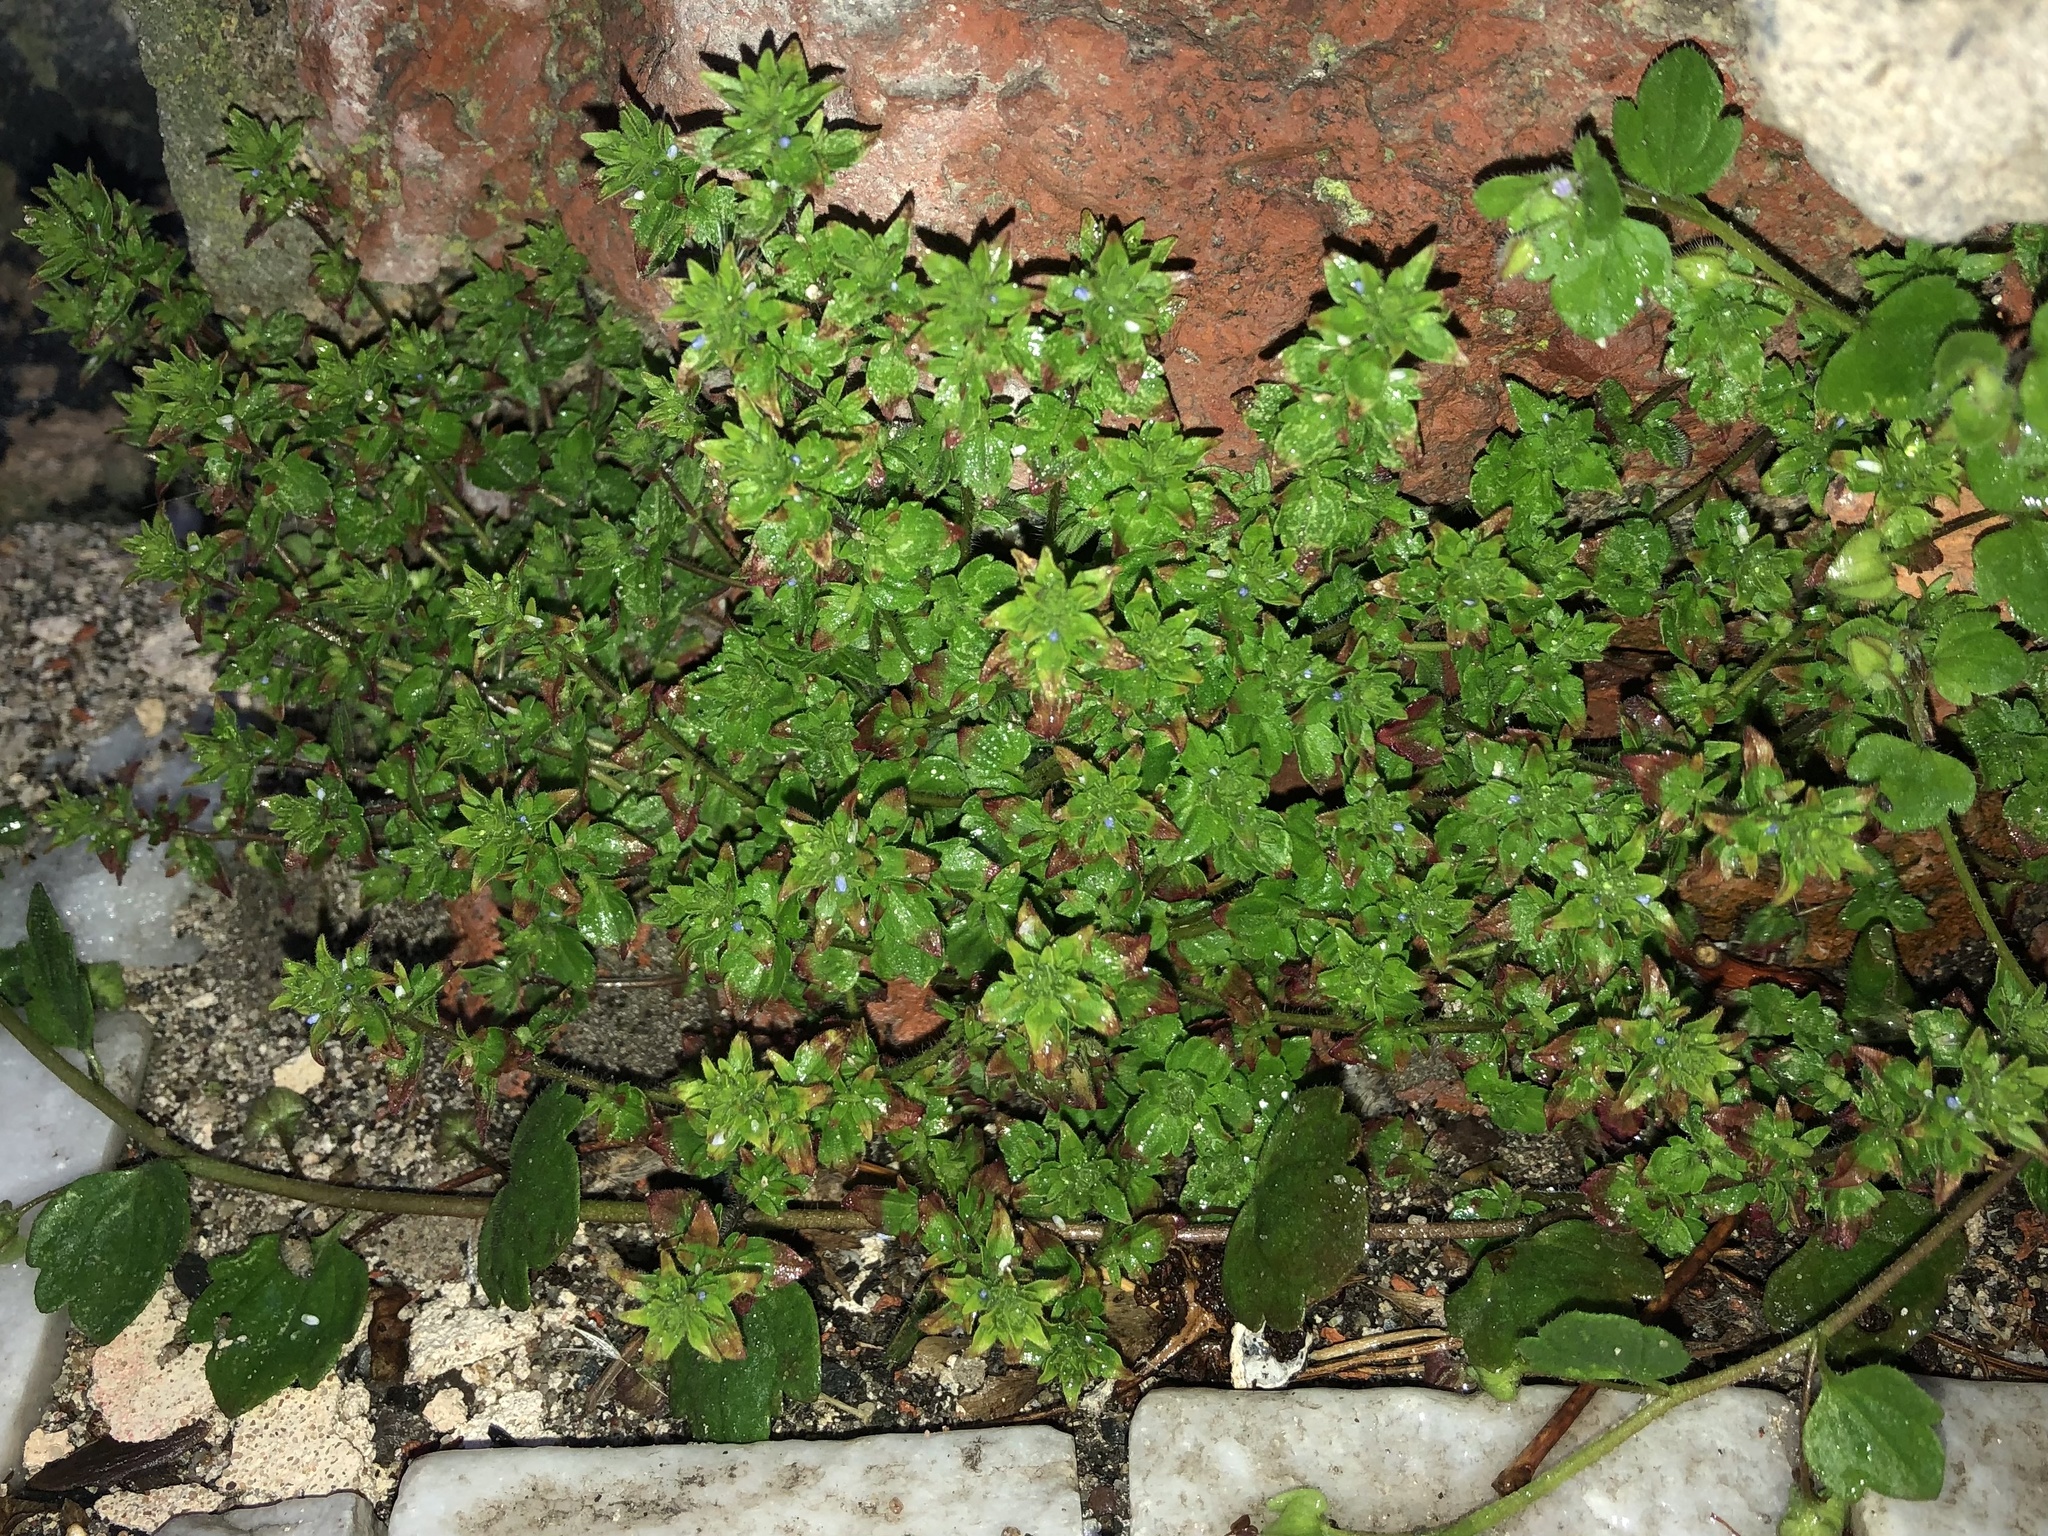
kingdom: Plantae
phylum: Tracheophyta
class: Magnoliopsida
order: Lamiales
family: Plantaginaceae
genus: Veronica
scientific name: Veronica arvensis
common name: Corn speedwell
